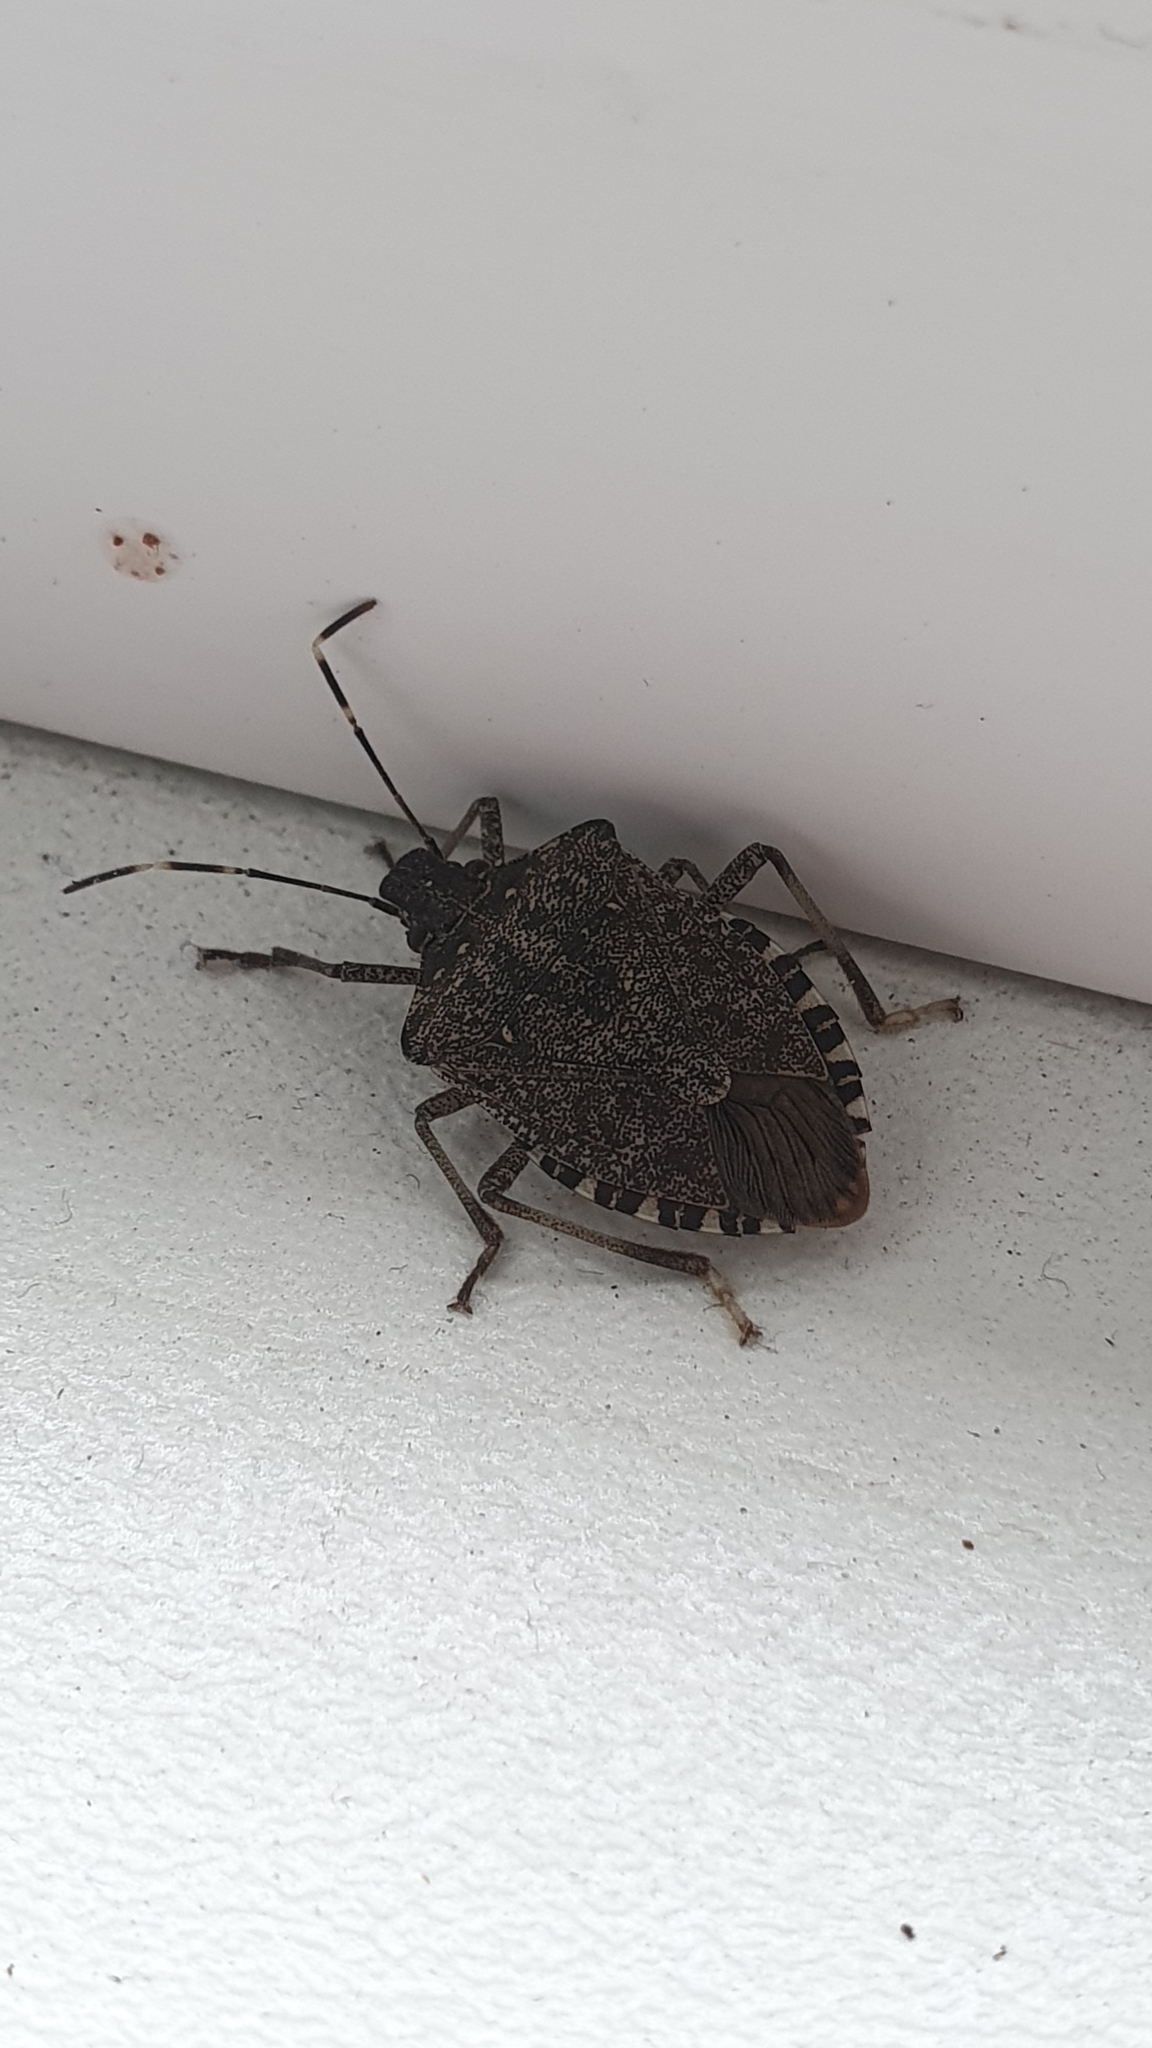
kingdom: Animalia
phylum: Arthropoda
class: Insecta
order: Hemiptera
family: Pentatomidae
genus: Halyomorpha
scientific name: Halyomorpha halys
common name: Brown marmorated stink bug
